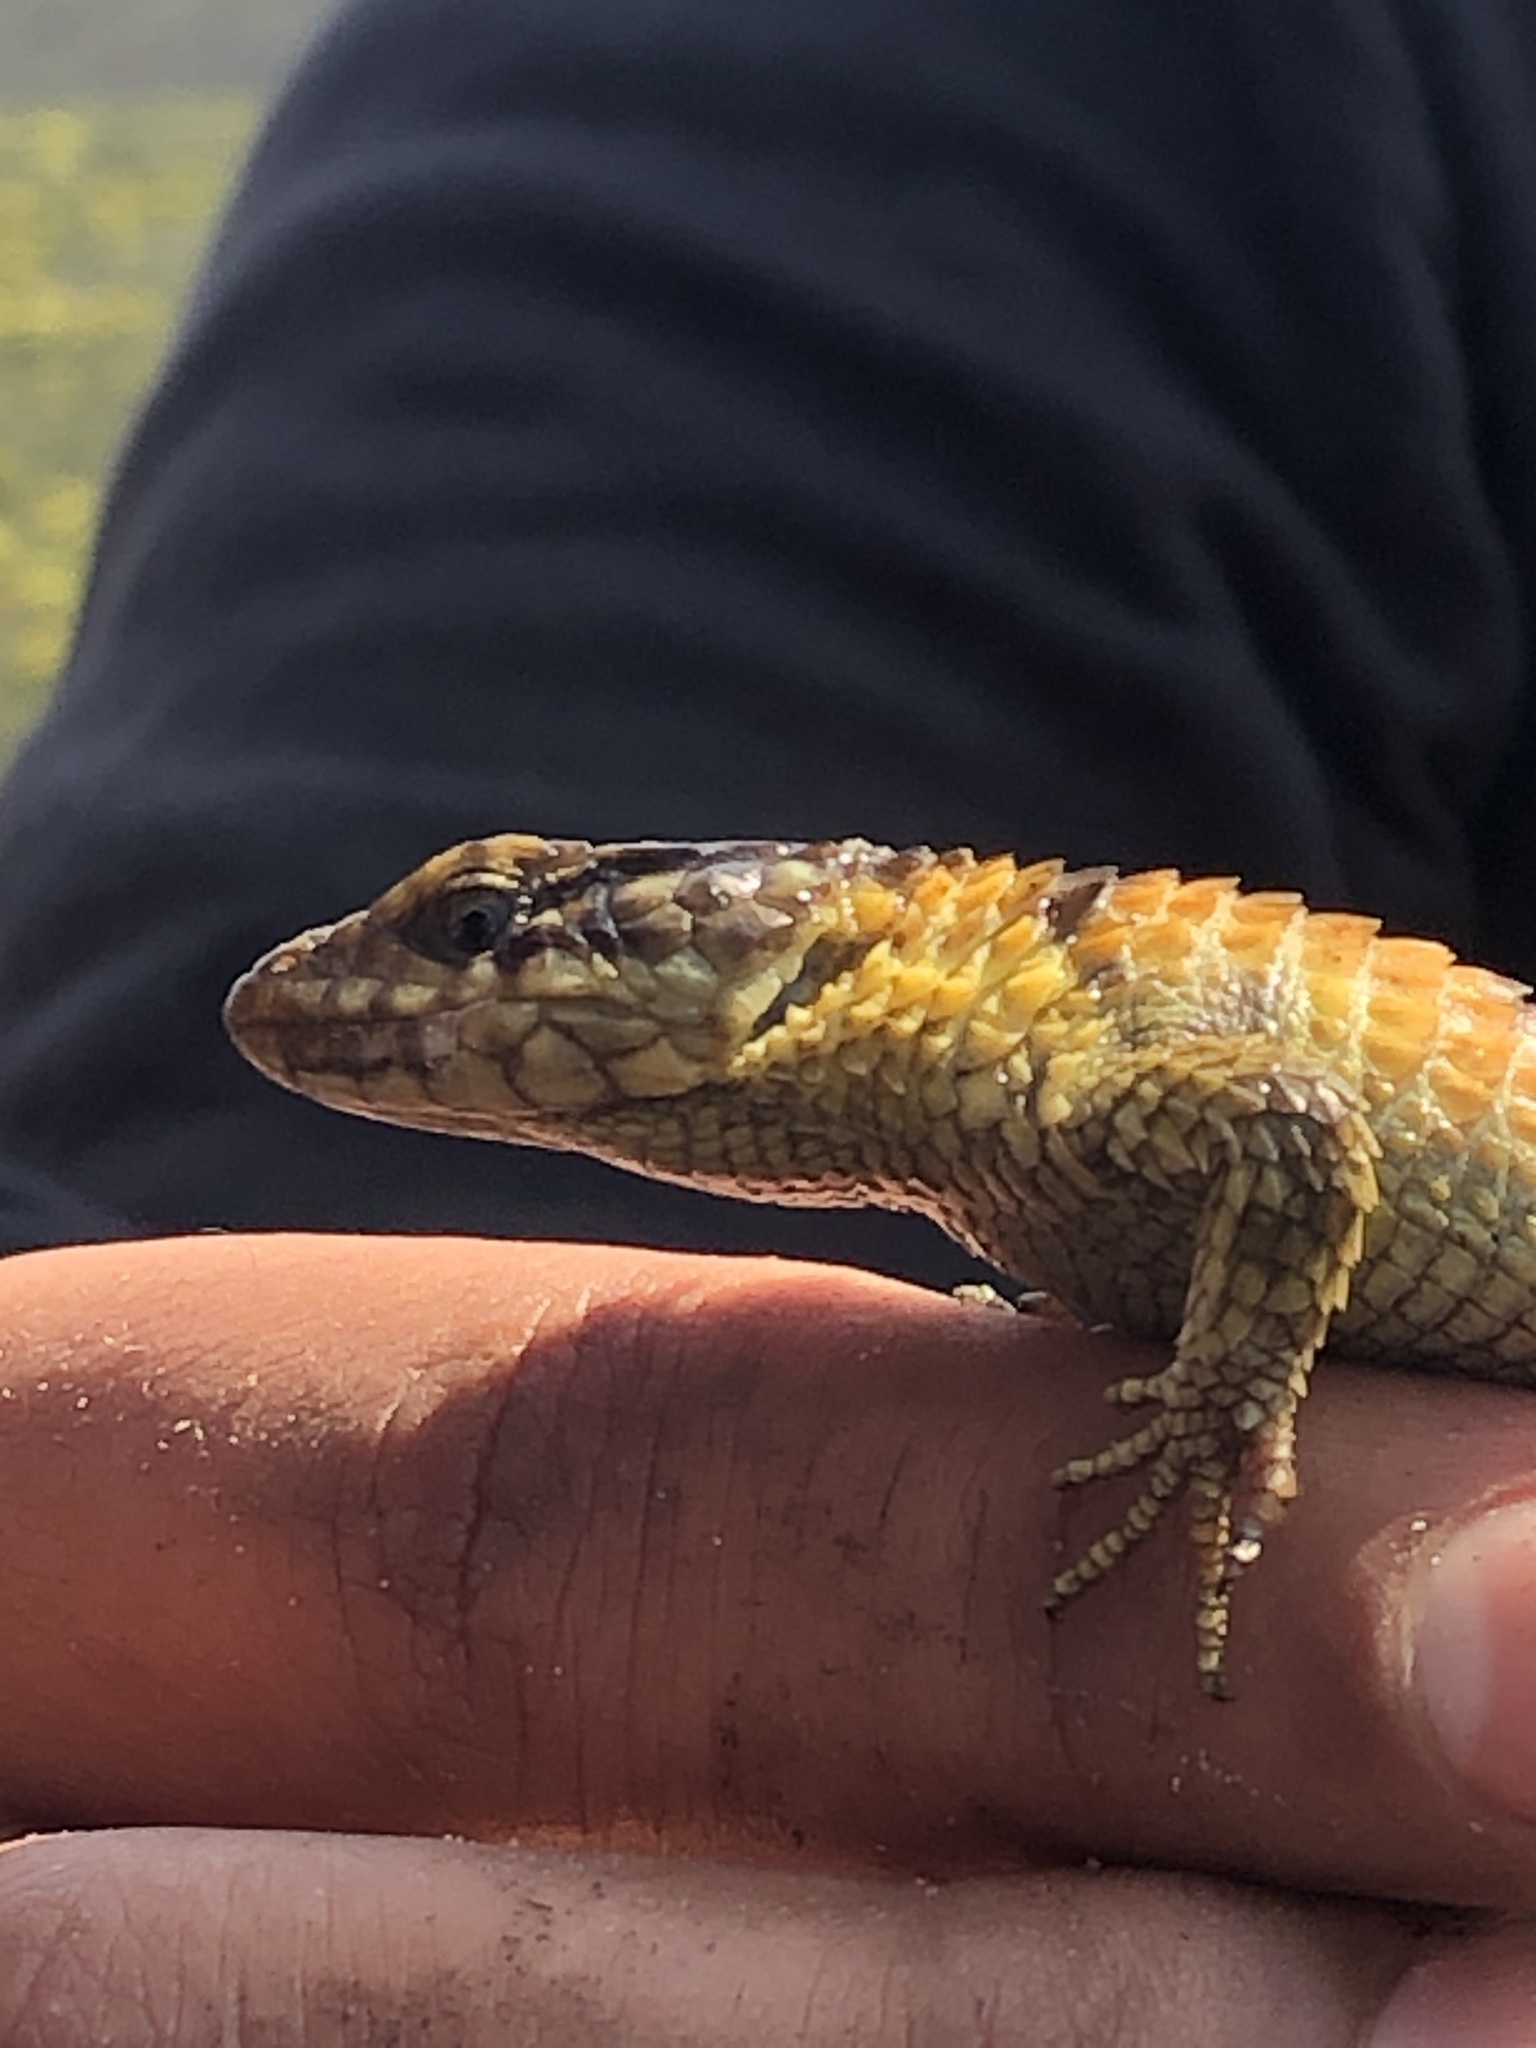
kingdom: Animalia
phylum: Chordata
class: Squamata
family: Cordylidae
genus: Cordylus
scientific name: Cordylus cordylus
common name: Cape girdled lizard
